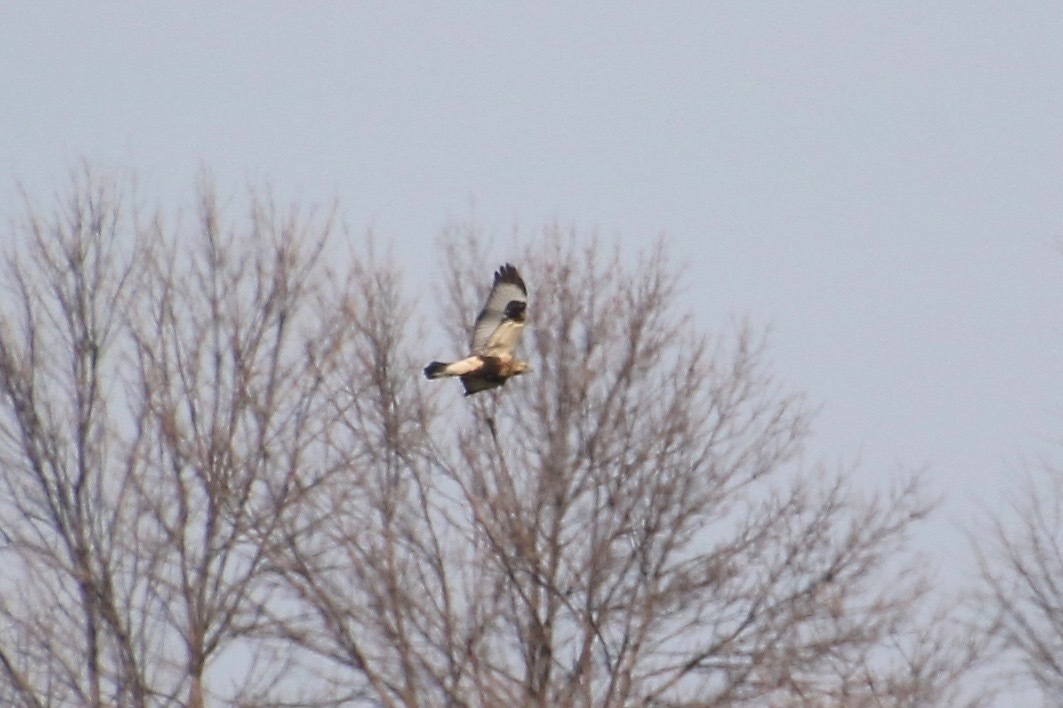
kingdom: Animalia
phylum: Chordata
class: Aves
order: Accipitriformes
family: Accipitridae
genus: Buteo
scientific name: Buteo lagopus
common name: Rough-legged buzzard
